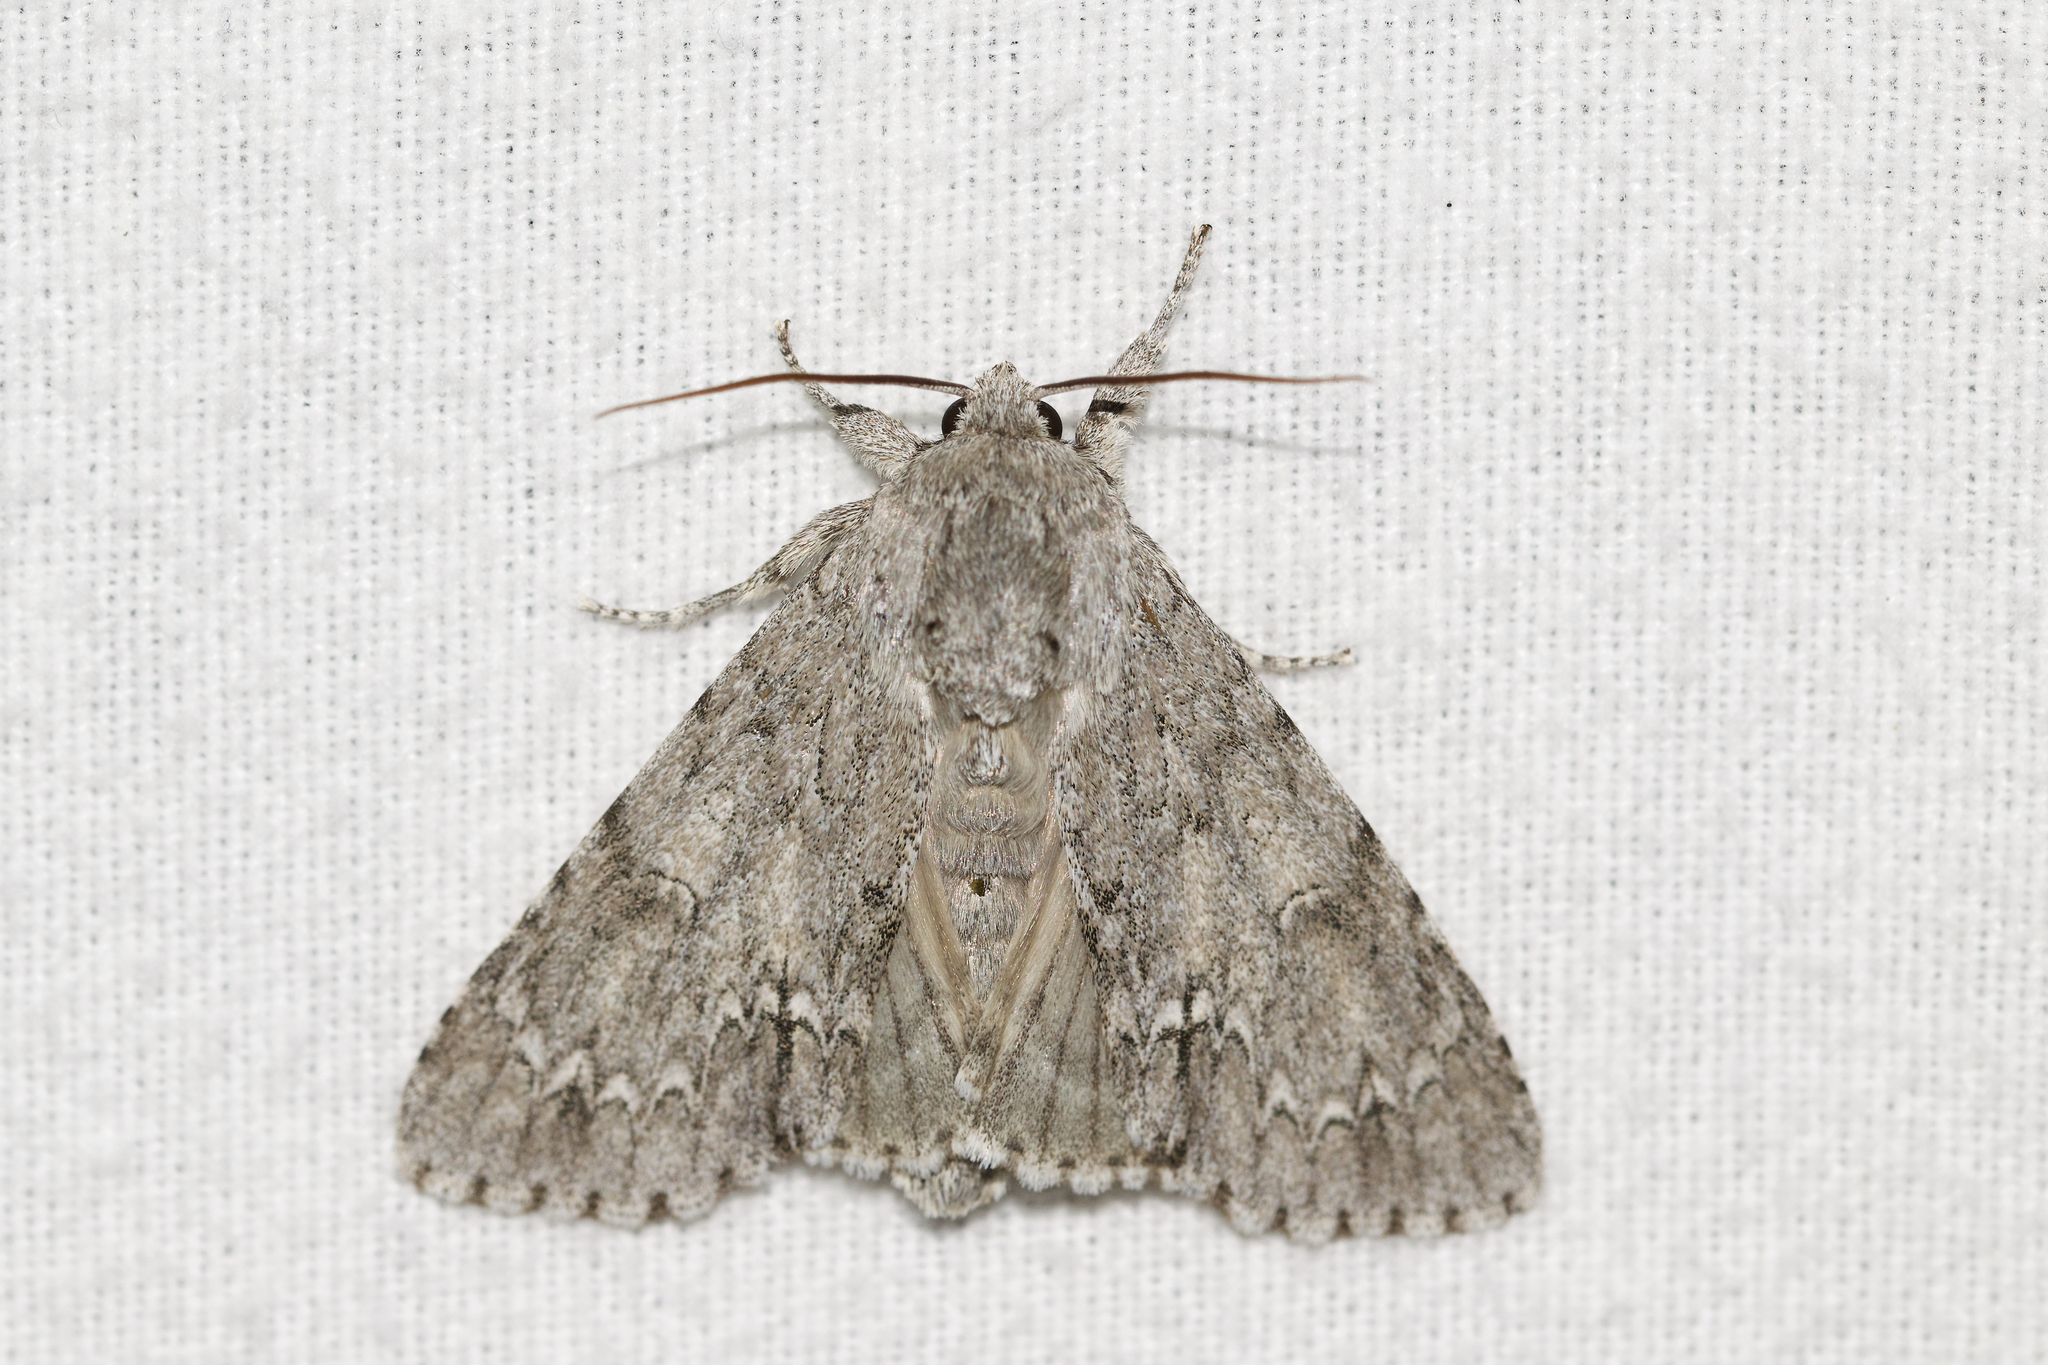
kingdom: Animalia
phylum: Arthropoda
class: Insecta
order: Lepidoptera
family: Noctuidae
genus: Acronicta
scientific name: Acronicta americana
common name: American dagger
